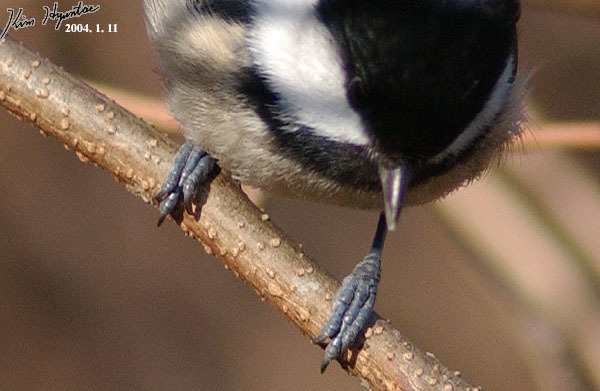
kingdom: Animalia
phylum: Chordata
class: Aves
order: Passeriformes
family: Paridae
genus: Periparus
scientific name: Periparus ater
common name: Coal tit
